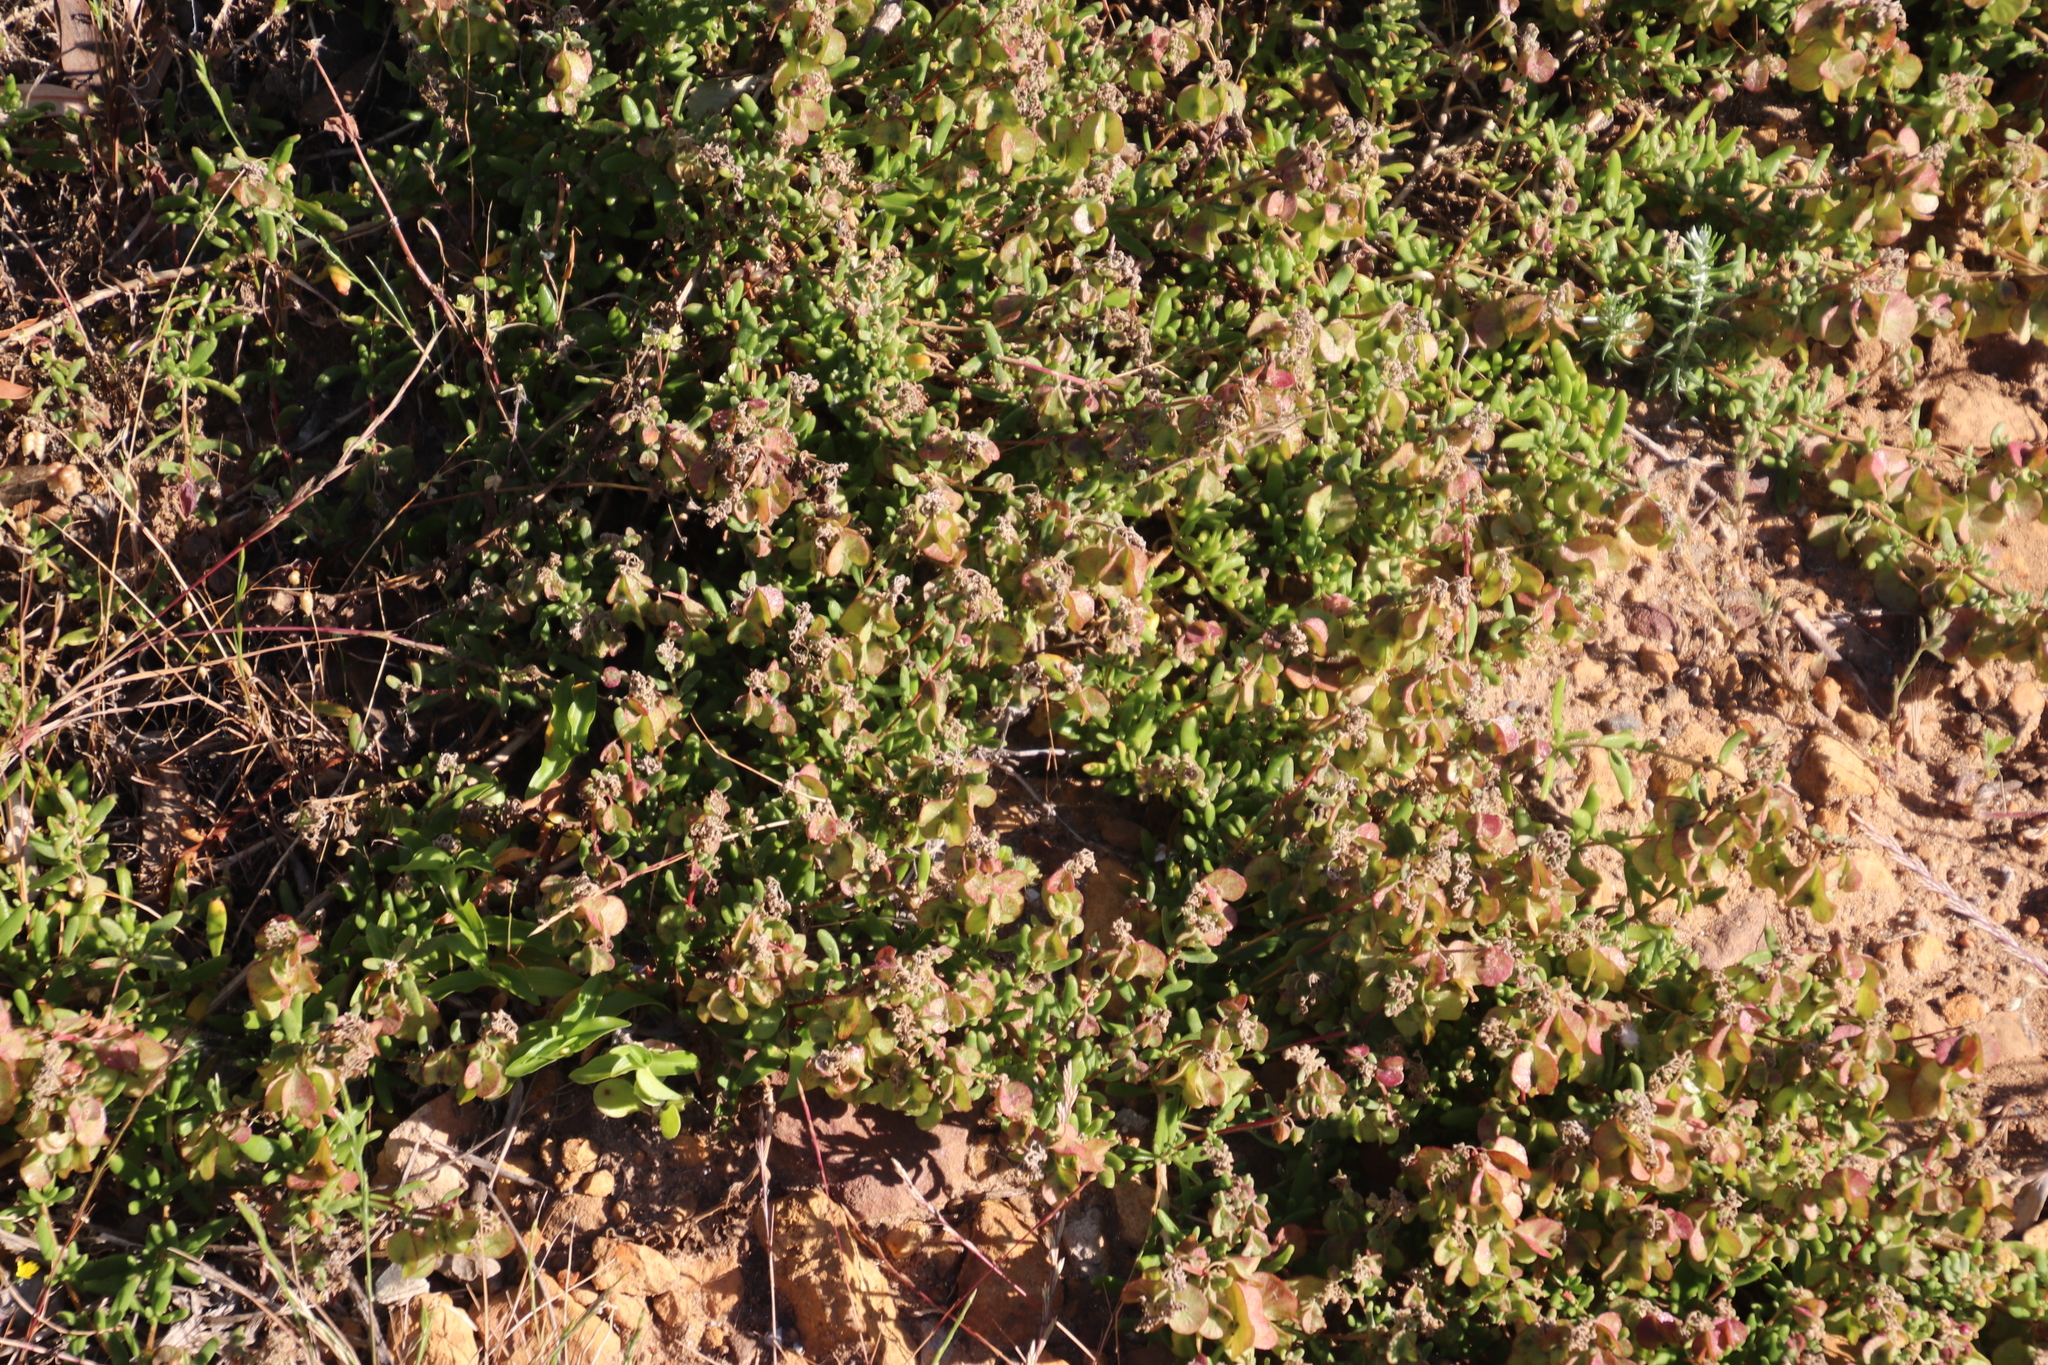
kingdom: Plantae
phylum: Tracheophyta
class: Magnoliopsida
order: Caryophyllales
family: Aizoaceae
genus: Tetragonia
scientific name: Tetragonia fruticosa
